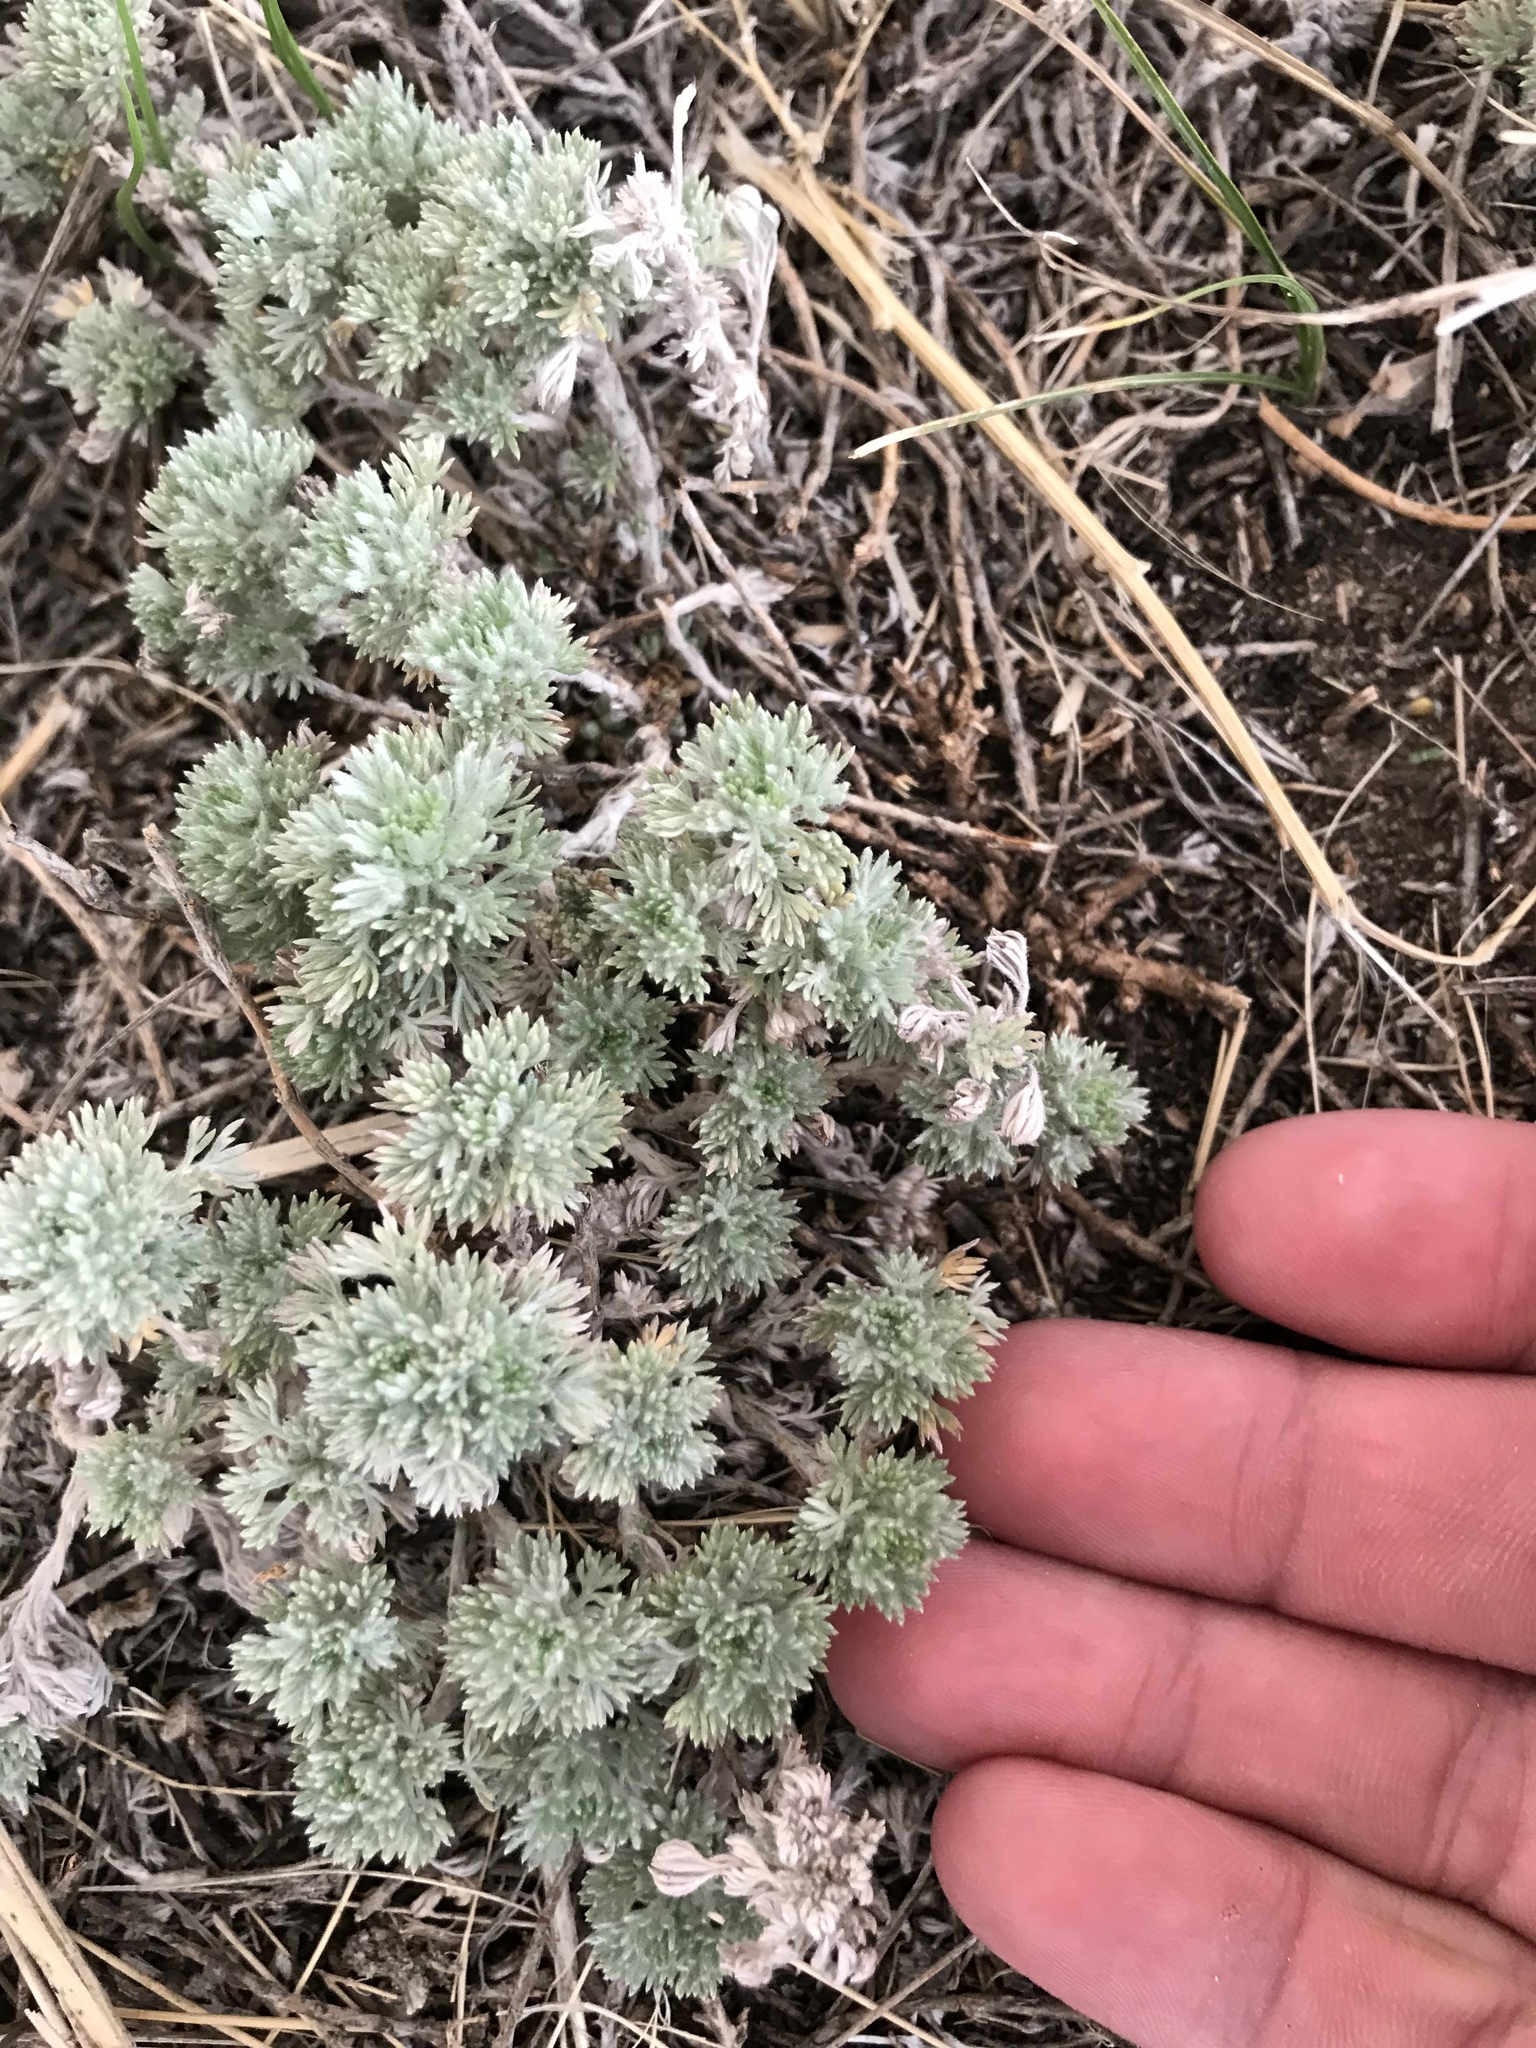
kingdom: Plantae
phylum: Tracheophyta
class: Magnoliopsida
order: Asterales
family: Asteraceae
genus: Artemisia
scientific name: Artemisia frigida
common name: Prairie sagewort
